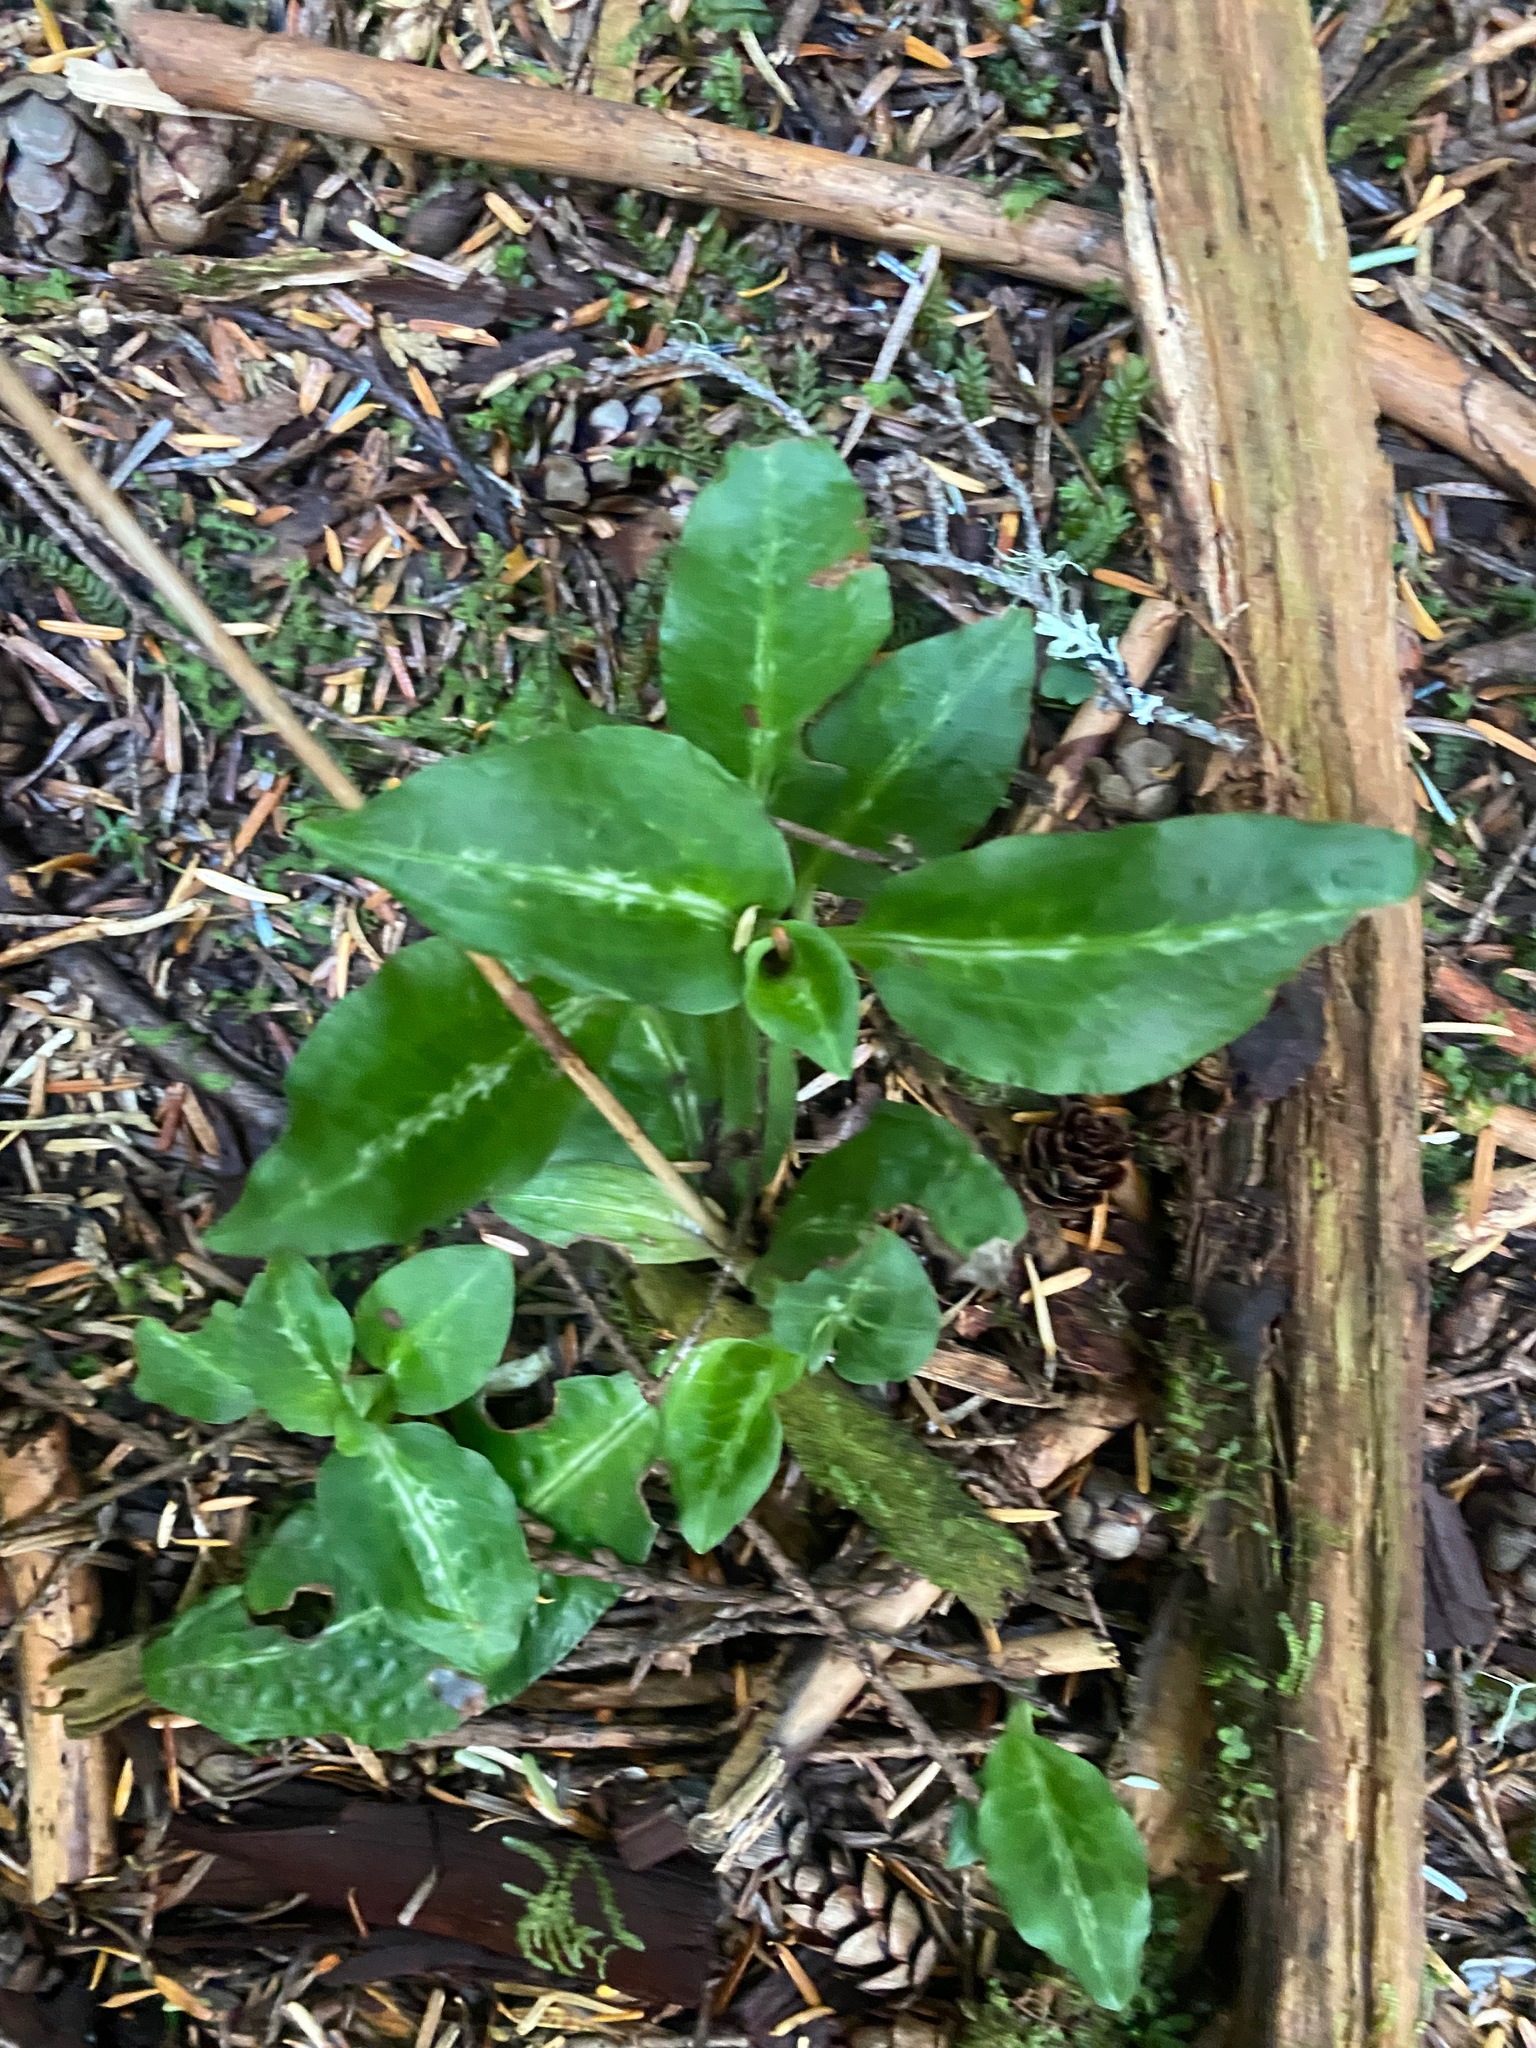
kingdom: Plantae
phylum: Tracheophyta
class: Liliopsida
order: Asparagales
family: Orchidaceae
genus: Goodyera
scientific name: Goodyera oblongifolia
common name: Giant rattlesnake-plantain
